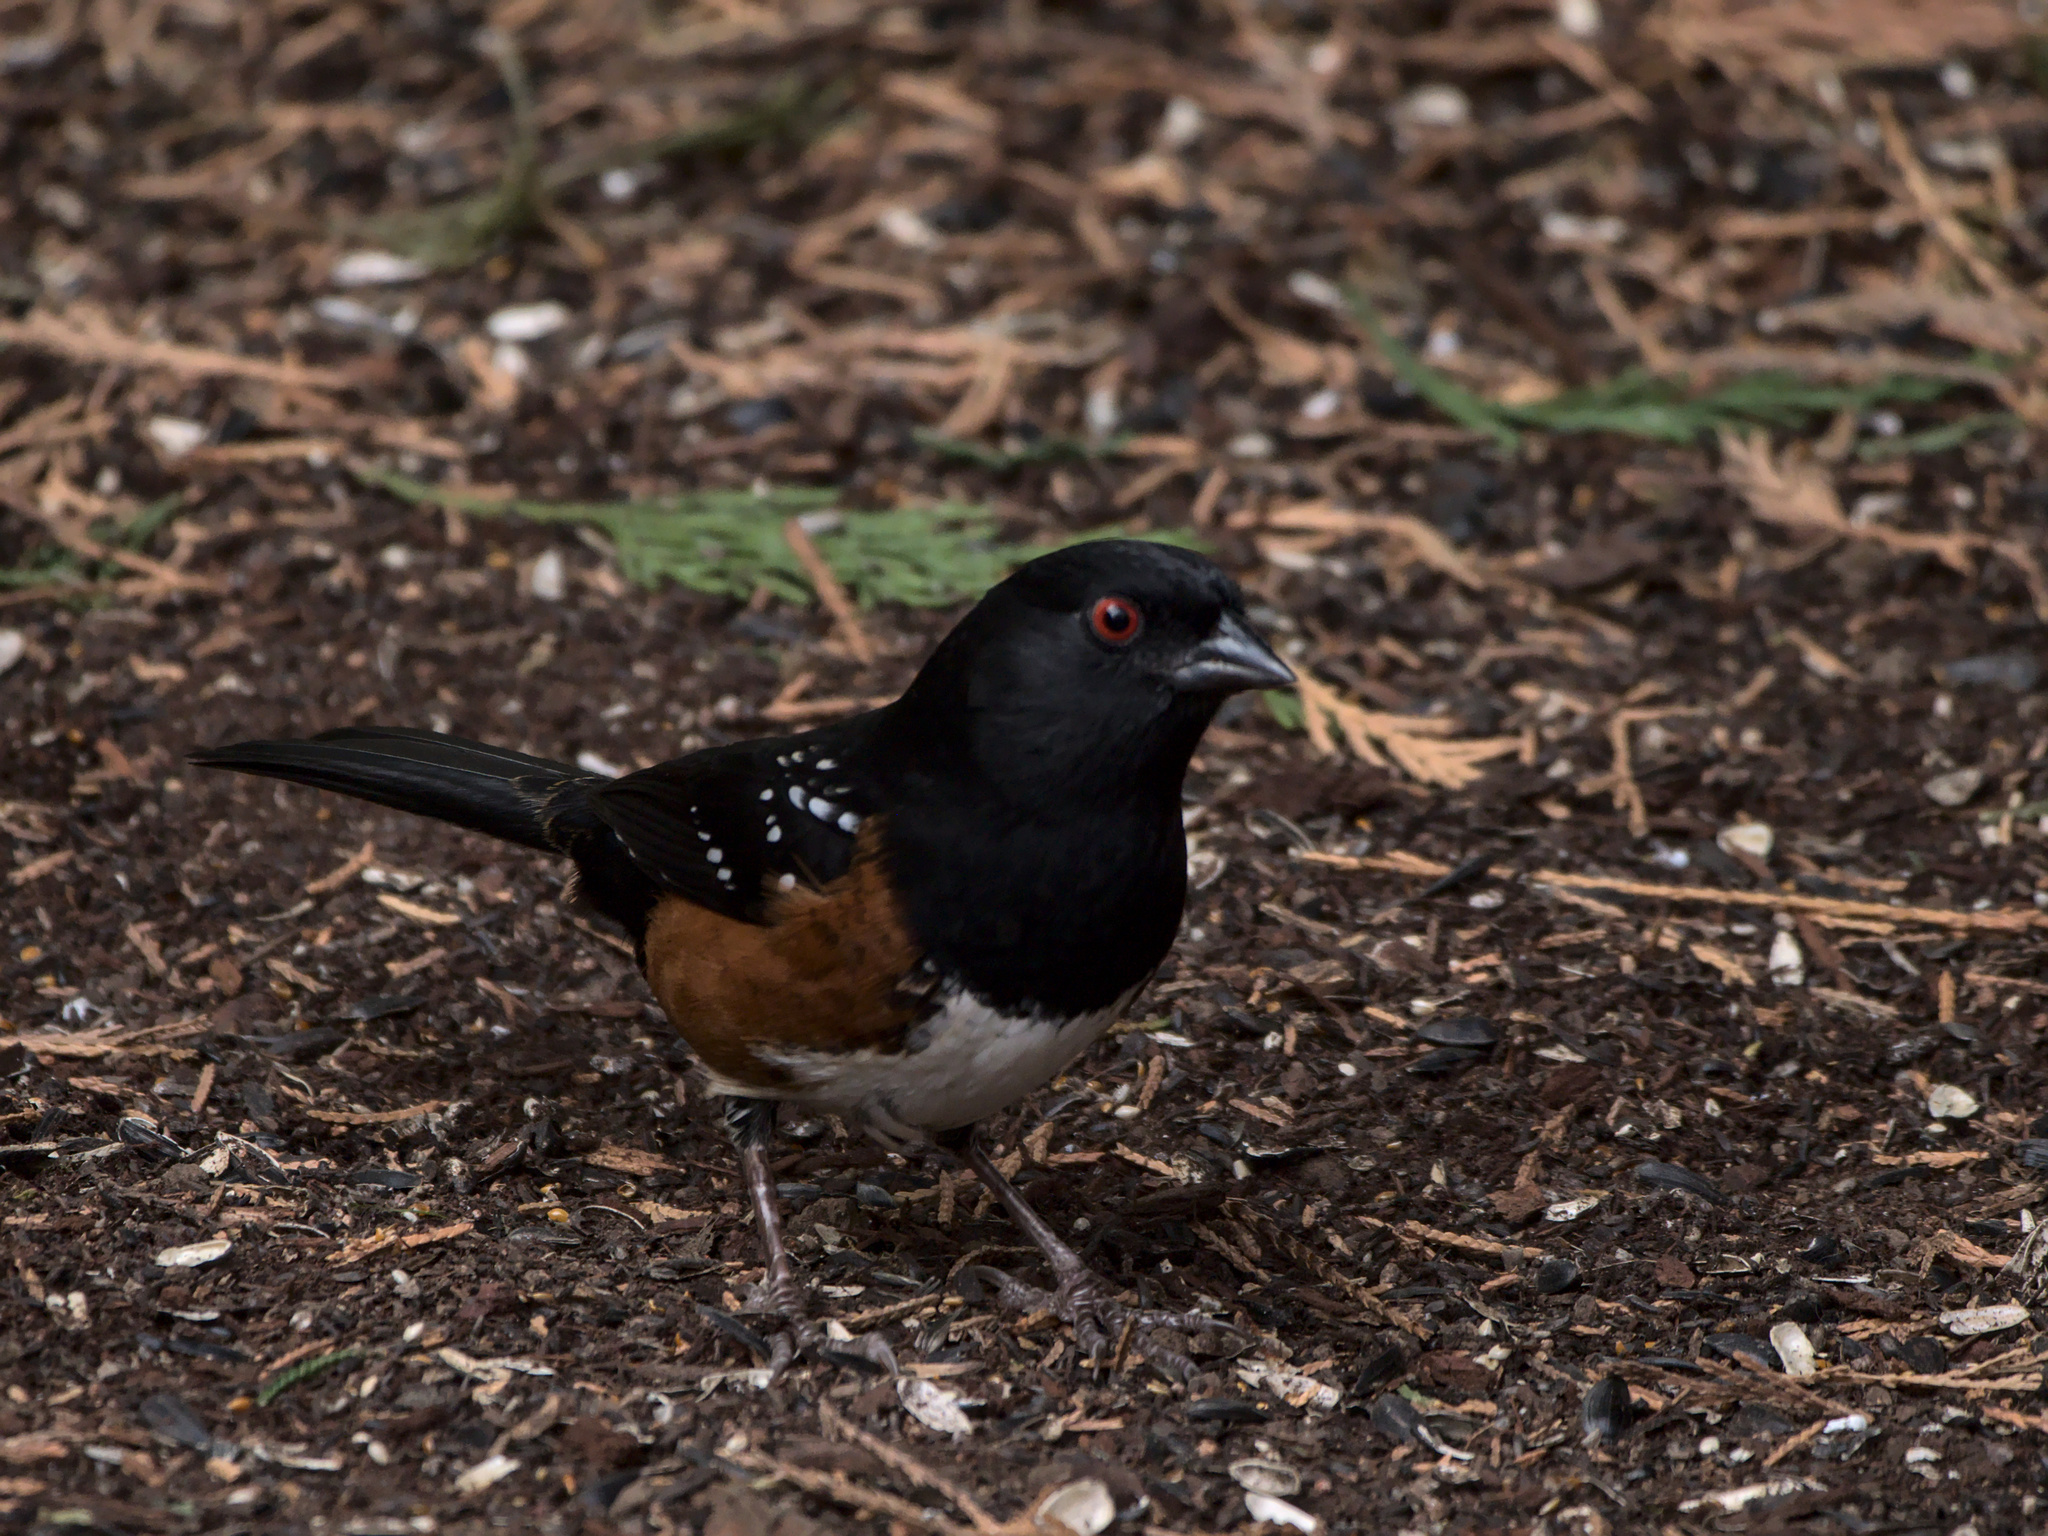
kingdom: Animalia
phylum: Chordata
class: Aves
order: Passeriformes
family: Passerellidae
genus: Pipilo
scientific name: Pipilo maculatus
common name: Spotted towhee
